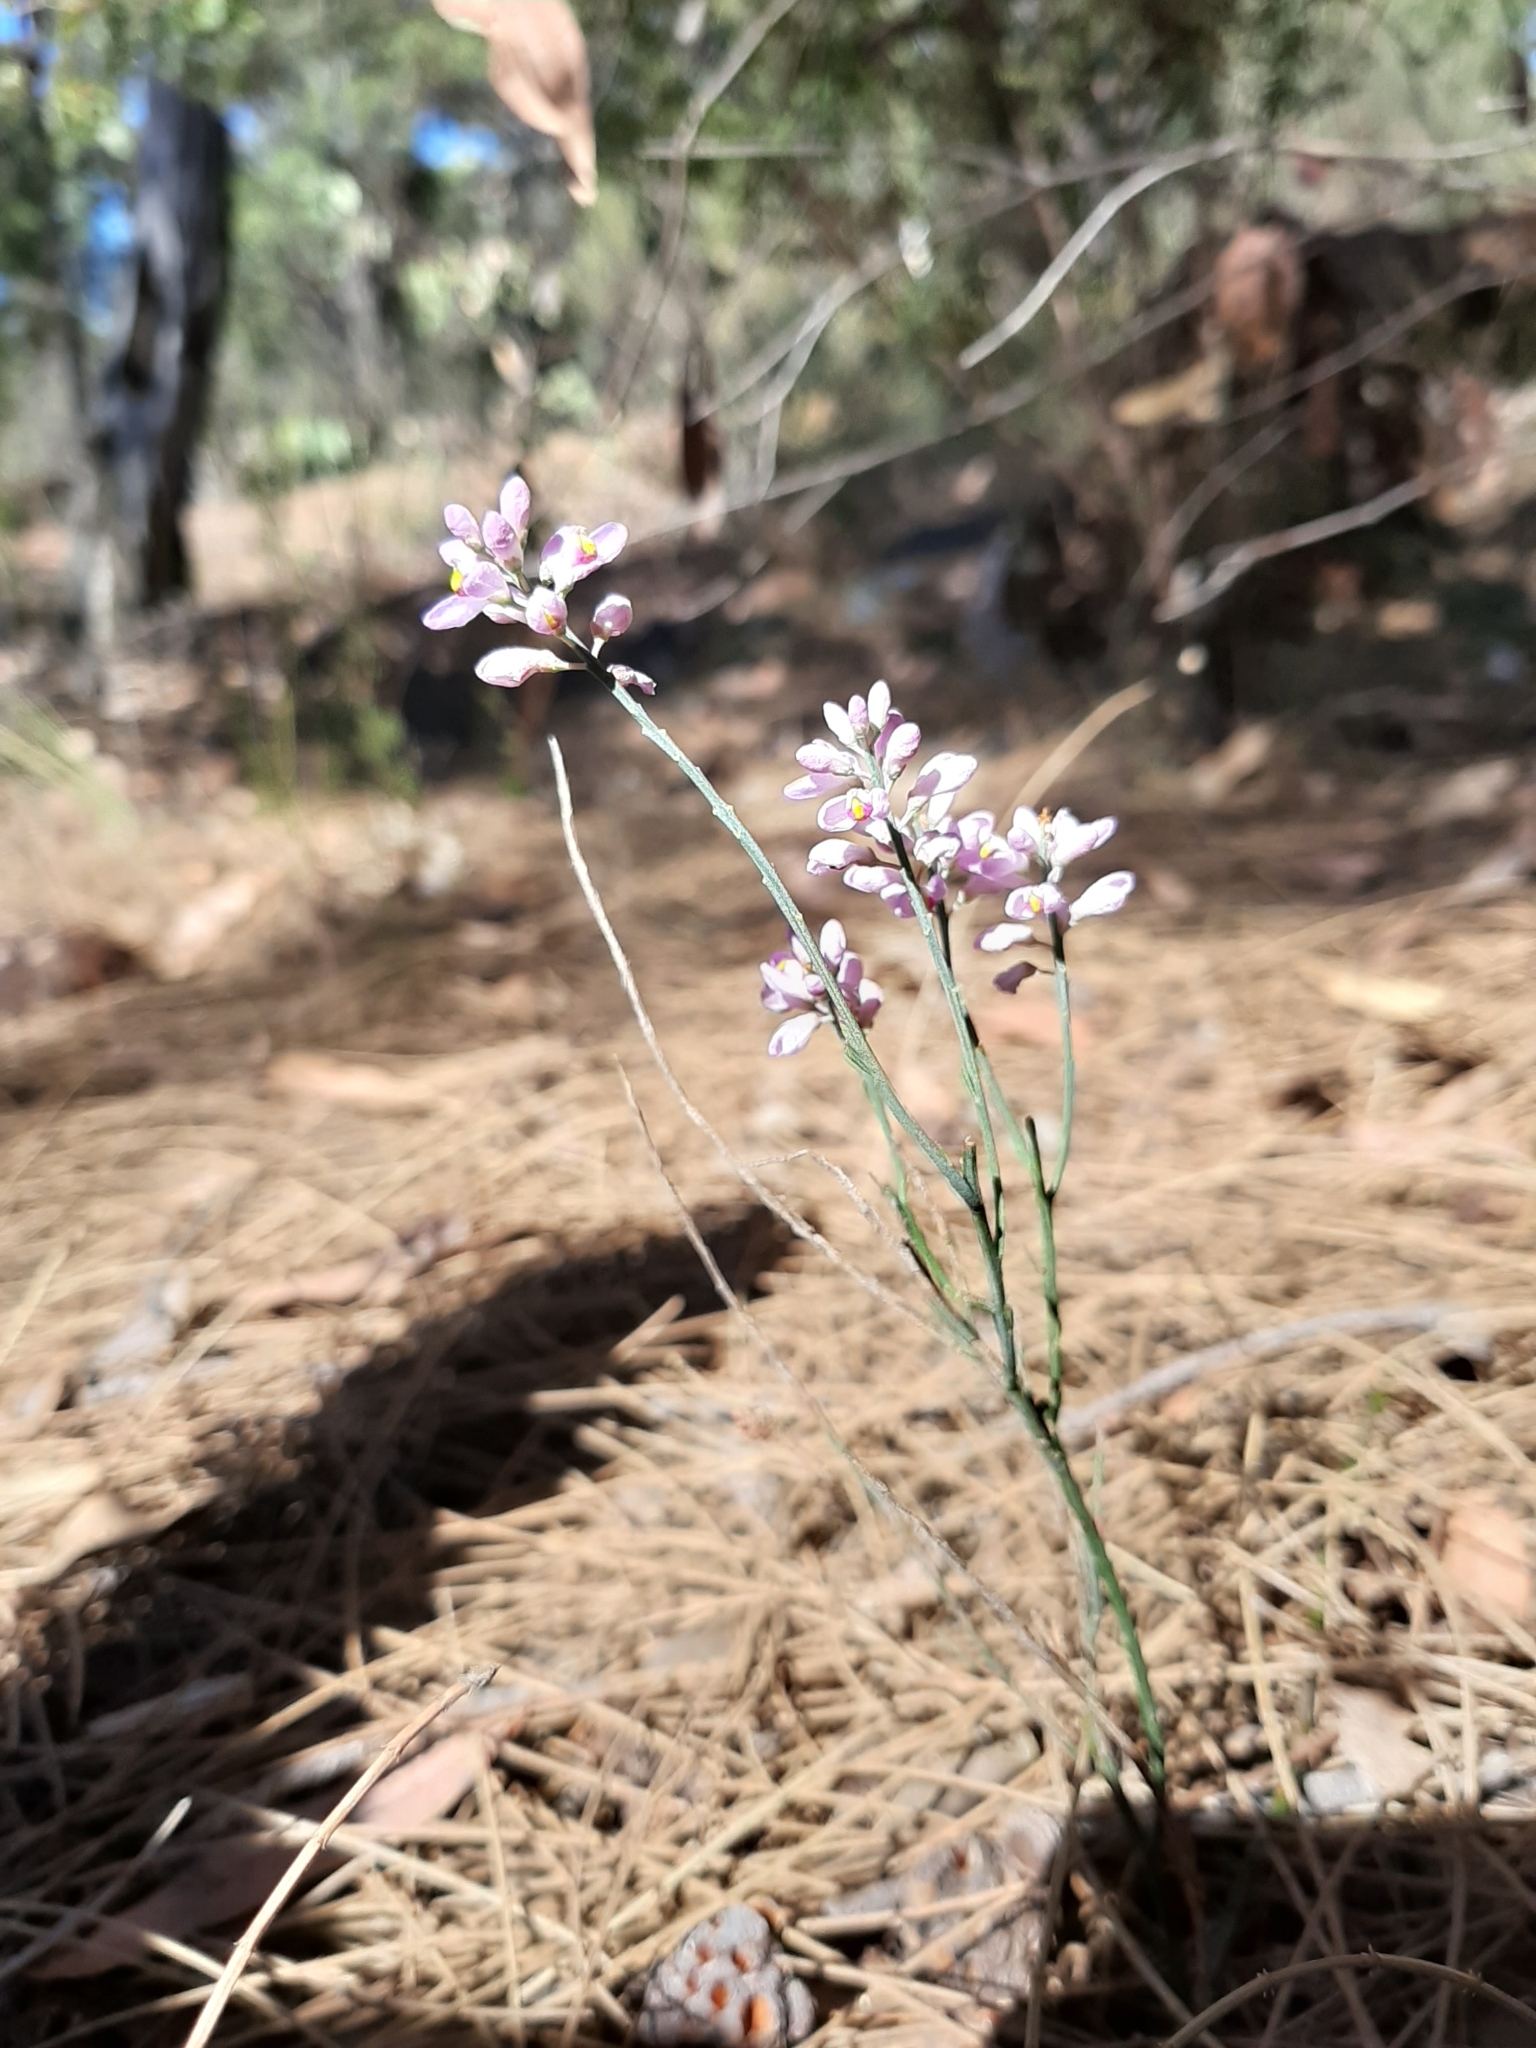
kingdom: Plantae
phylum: Tracheophyta
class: Magnoliopsida
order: Fabales
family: Polygalaceae
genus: Comesperma
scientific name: Comesperma virgatum
